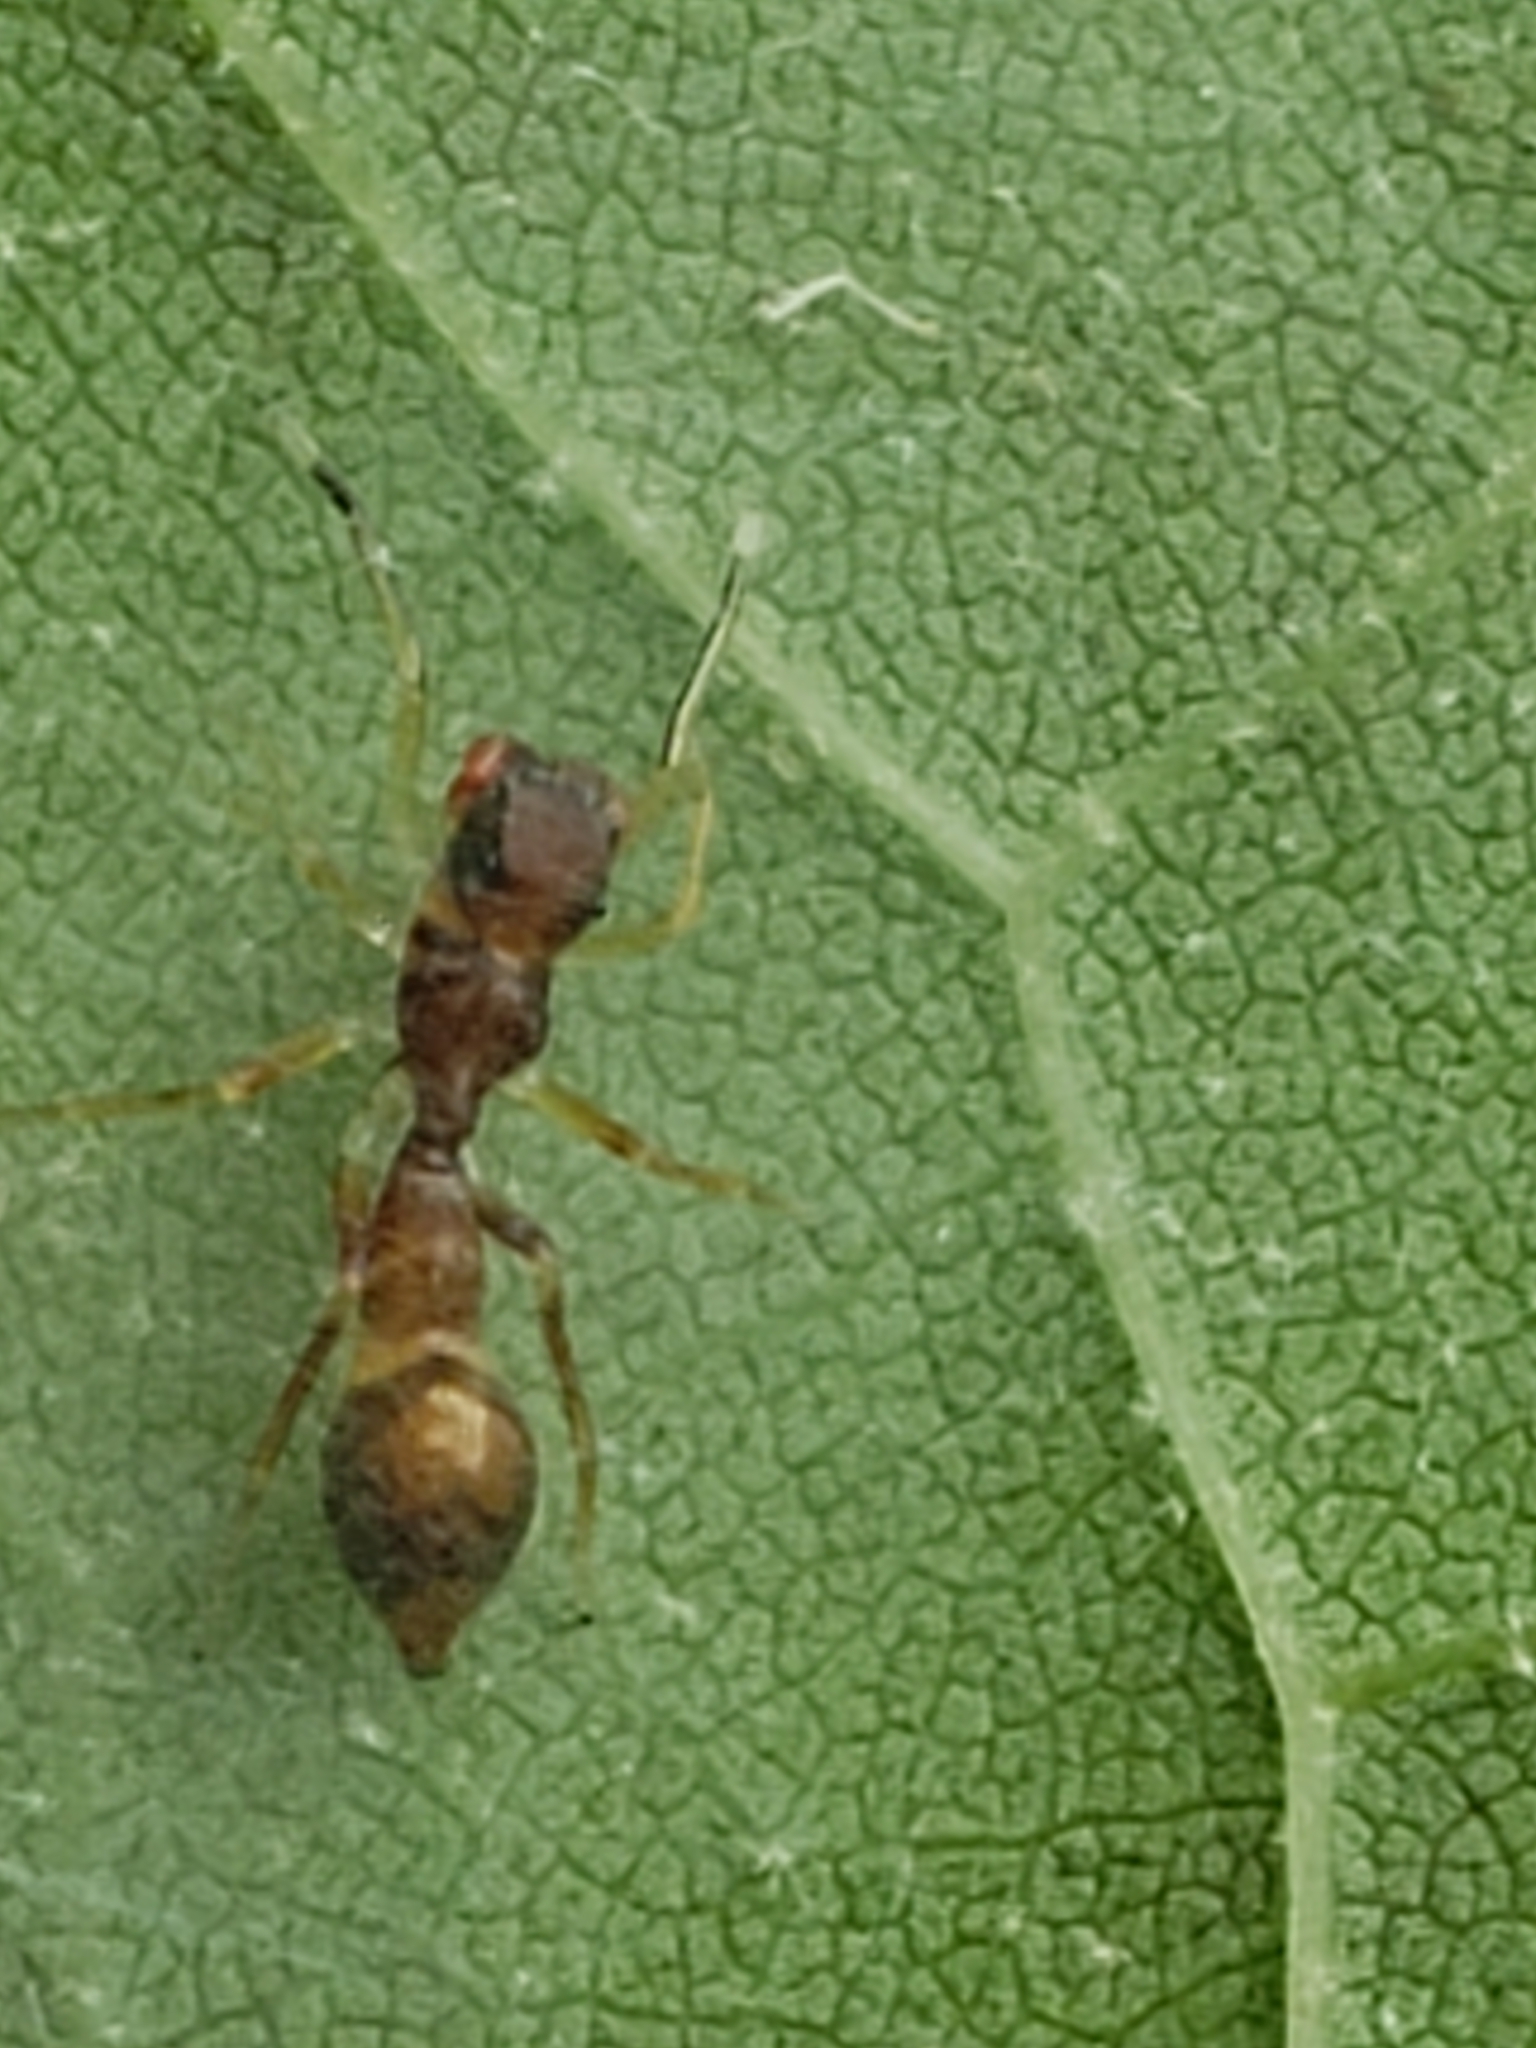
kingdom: Animalia
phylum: Arthropoda
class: Arachnida
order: Araneae
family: Salticidae
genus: Synemosyna
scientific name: Synemosyna formica
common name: Slender ant-mimic jumping spider
